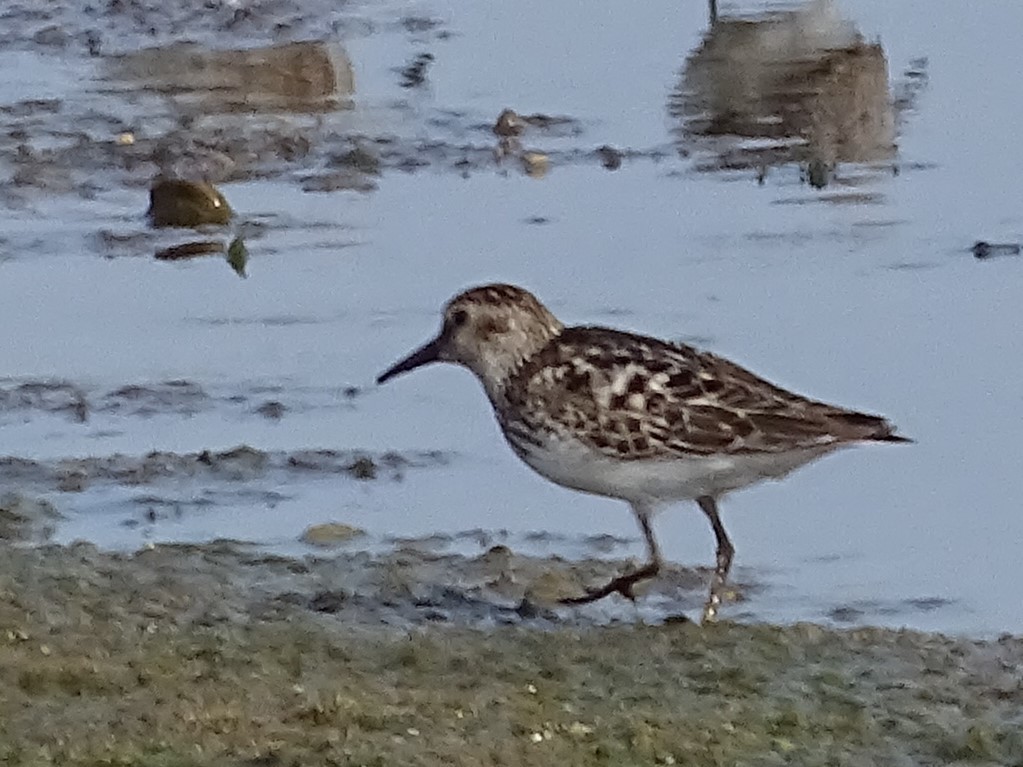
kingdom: Animalia
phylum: Chordata
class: Aves
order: Charadriiformes
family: Scolopacidae
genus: Calidris
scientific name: Calidris minutilla
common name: Least sandpiper
